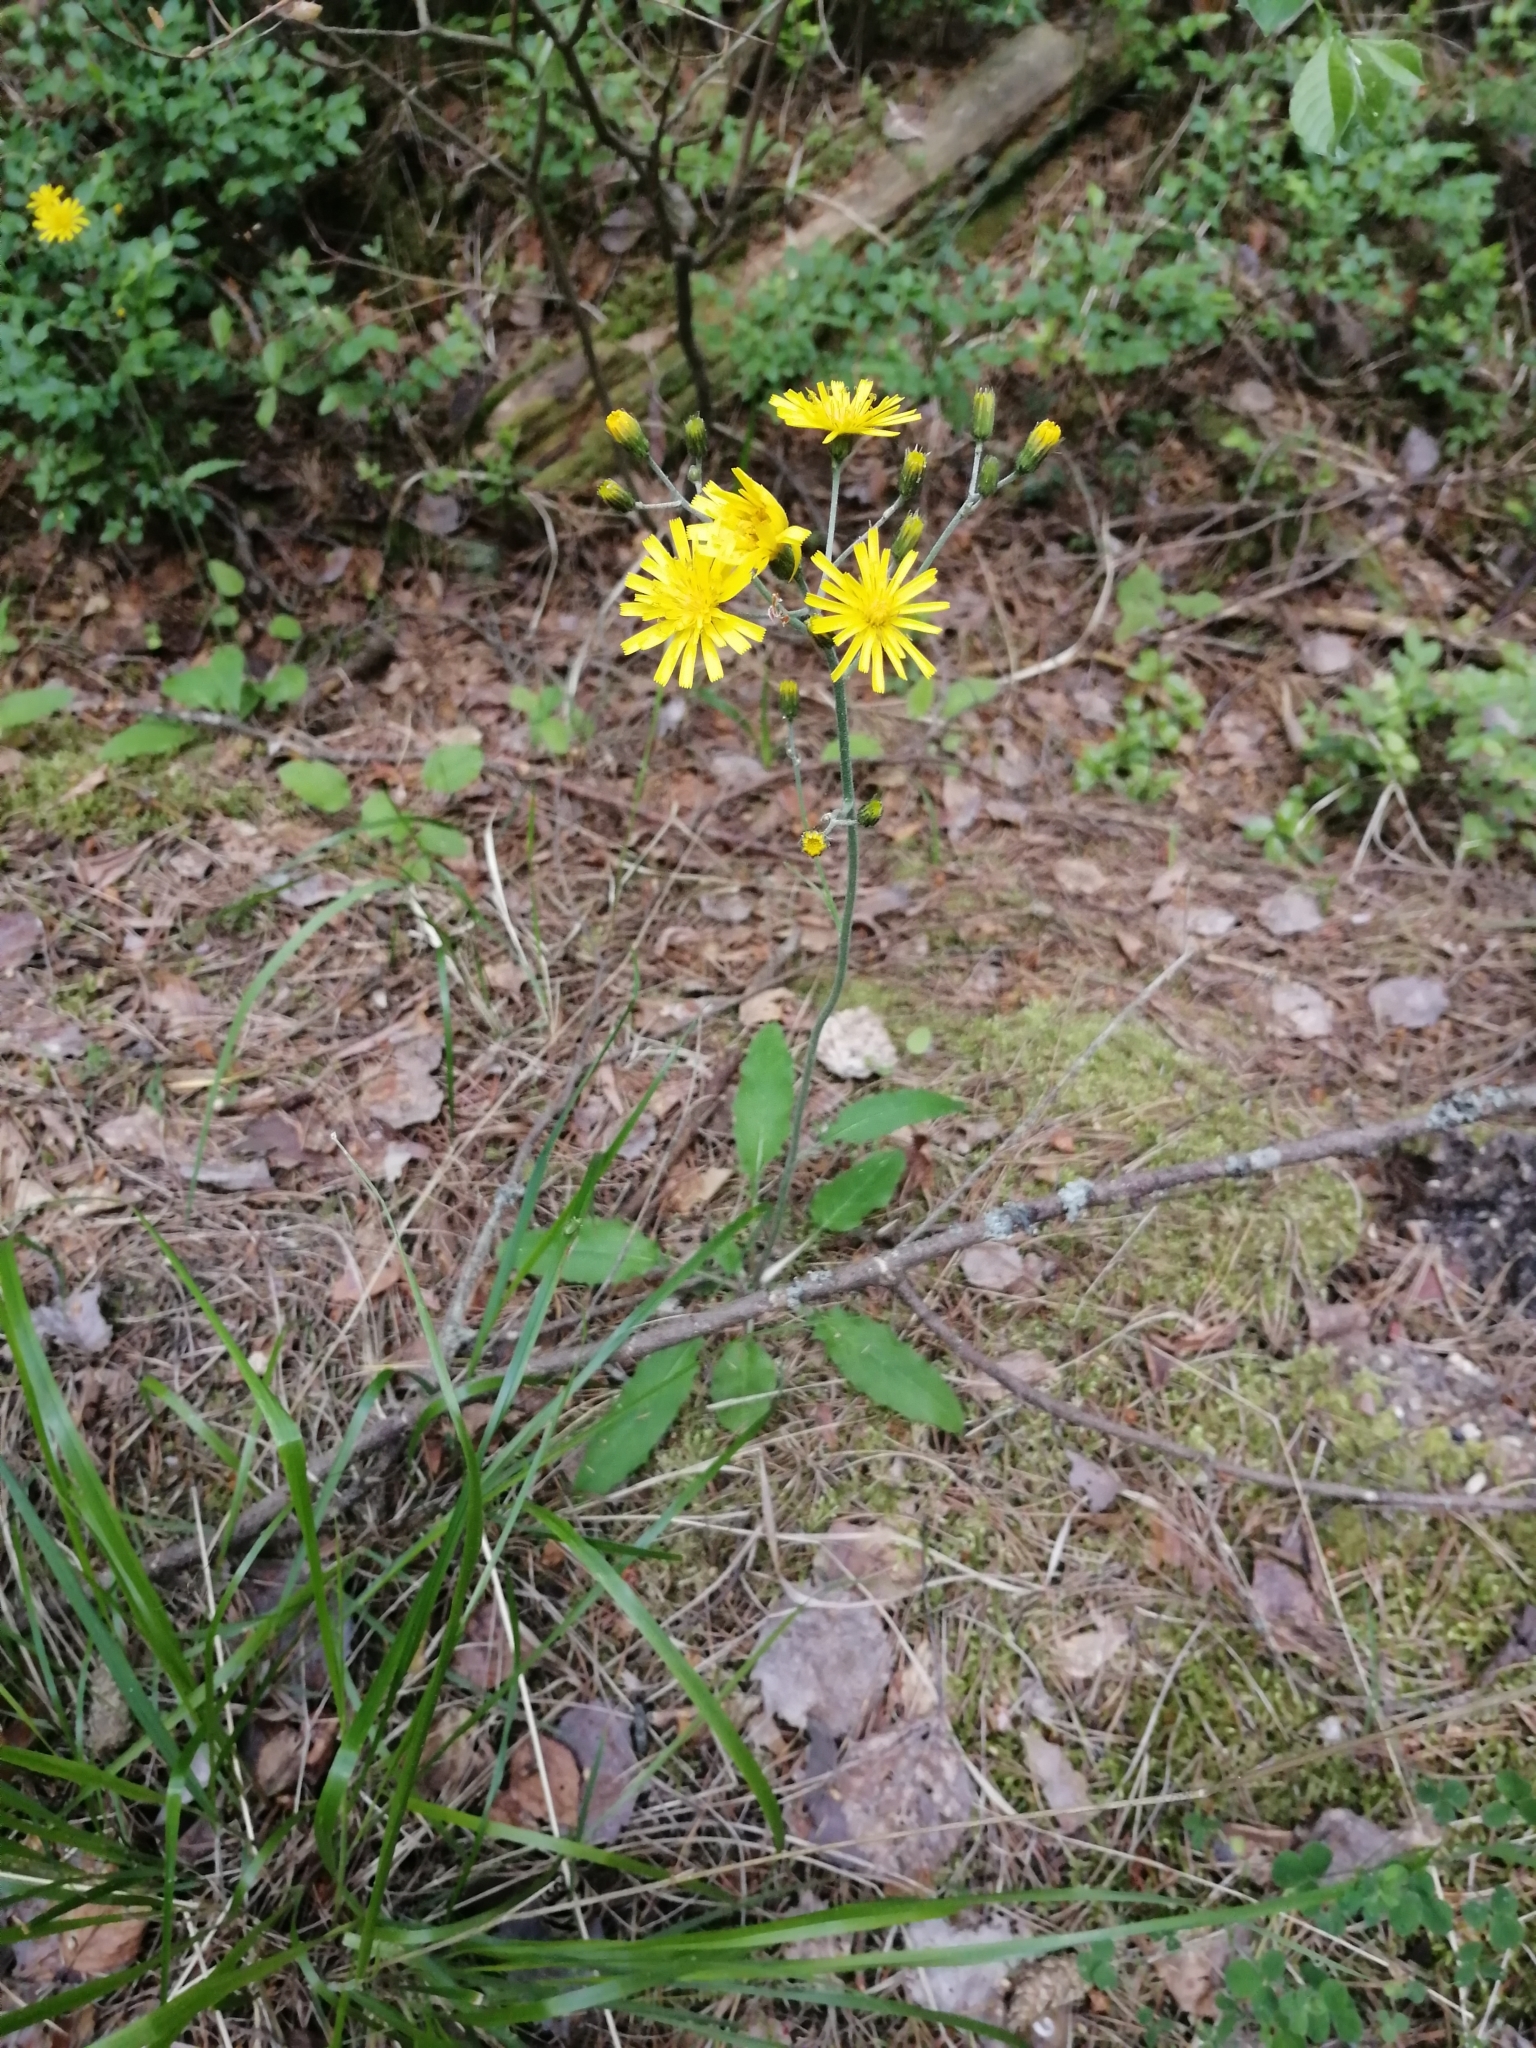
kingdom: Plantae
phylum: Tracheophyta
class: Magnoliopsida
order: Asterales
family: Asteraceae
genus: Hieracium
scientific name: Hieracium murorum
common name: Wall hawkweed
